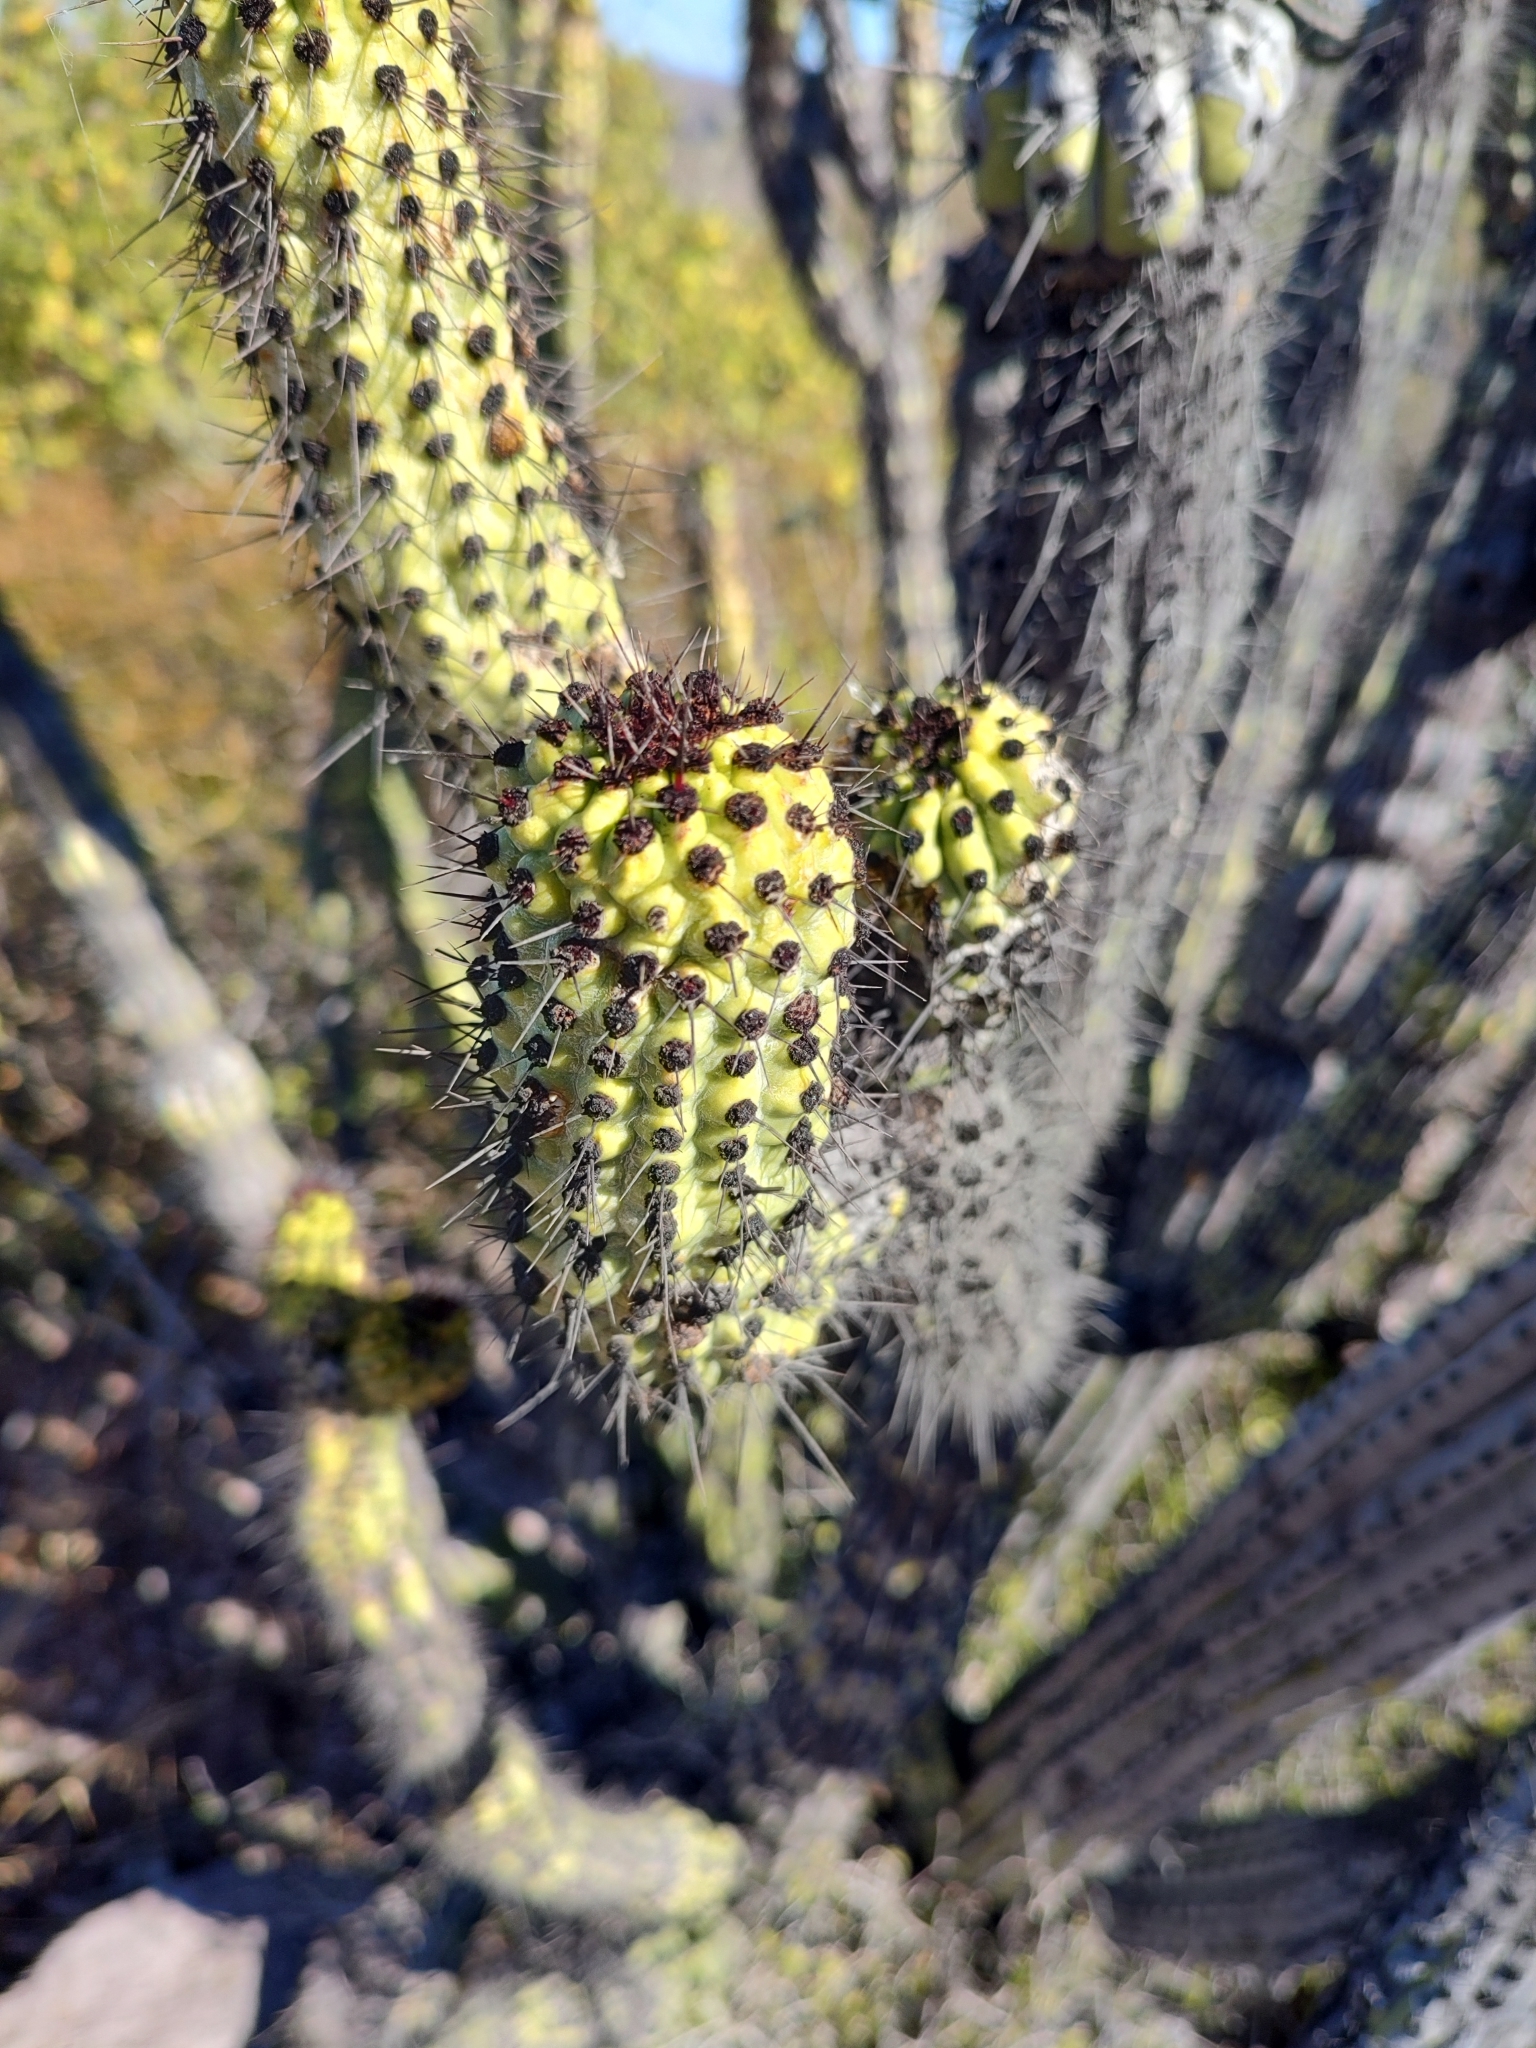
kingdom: Plantae
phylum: Tracheophyta
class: Magnoliopsida
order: Caryophyllales
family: Cactaceae
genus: Stenocereus
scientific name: Stenocereus thurberi
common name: Organ pipe cactus
